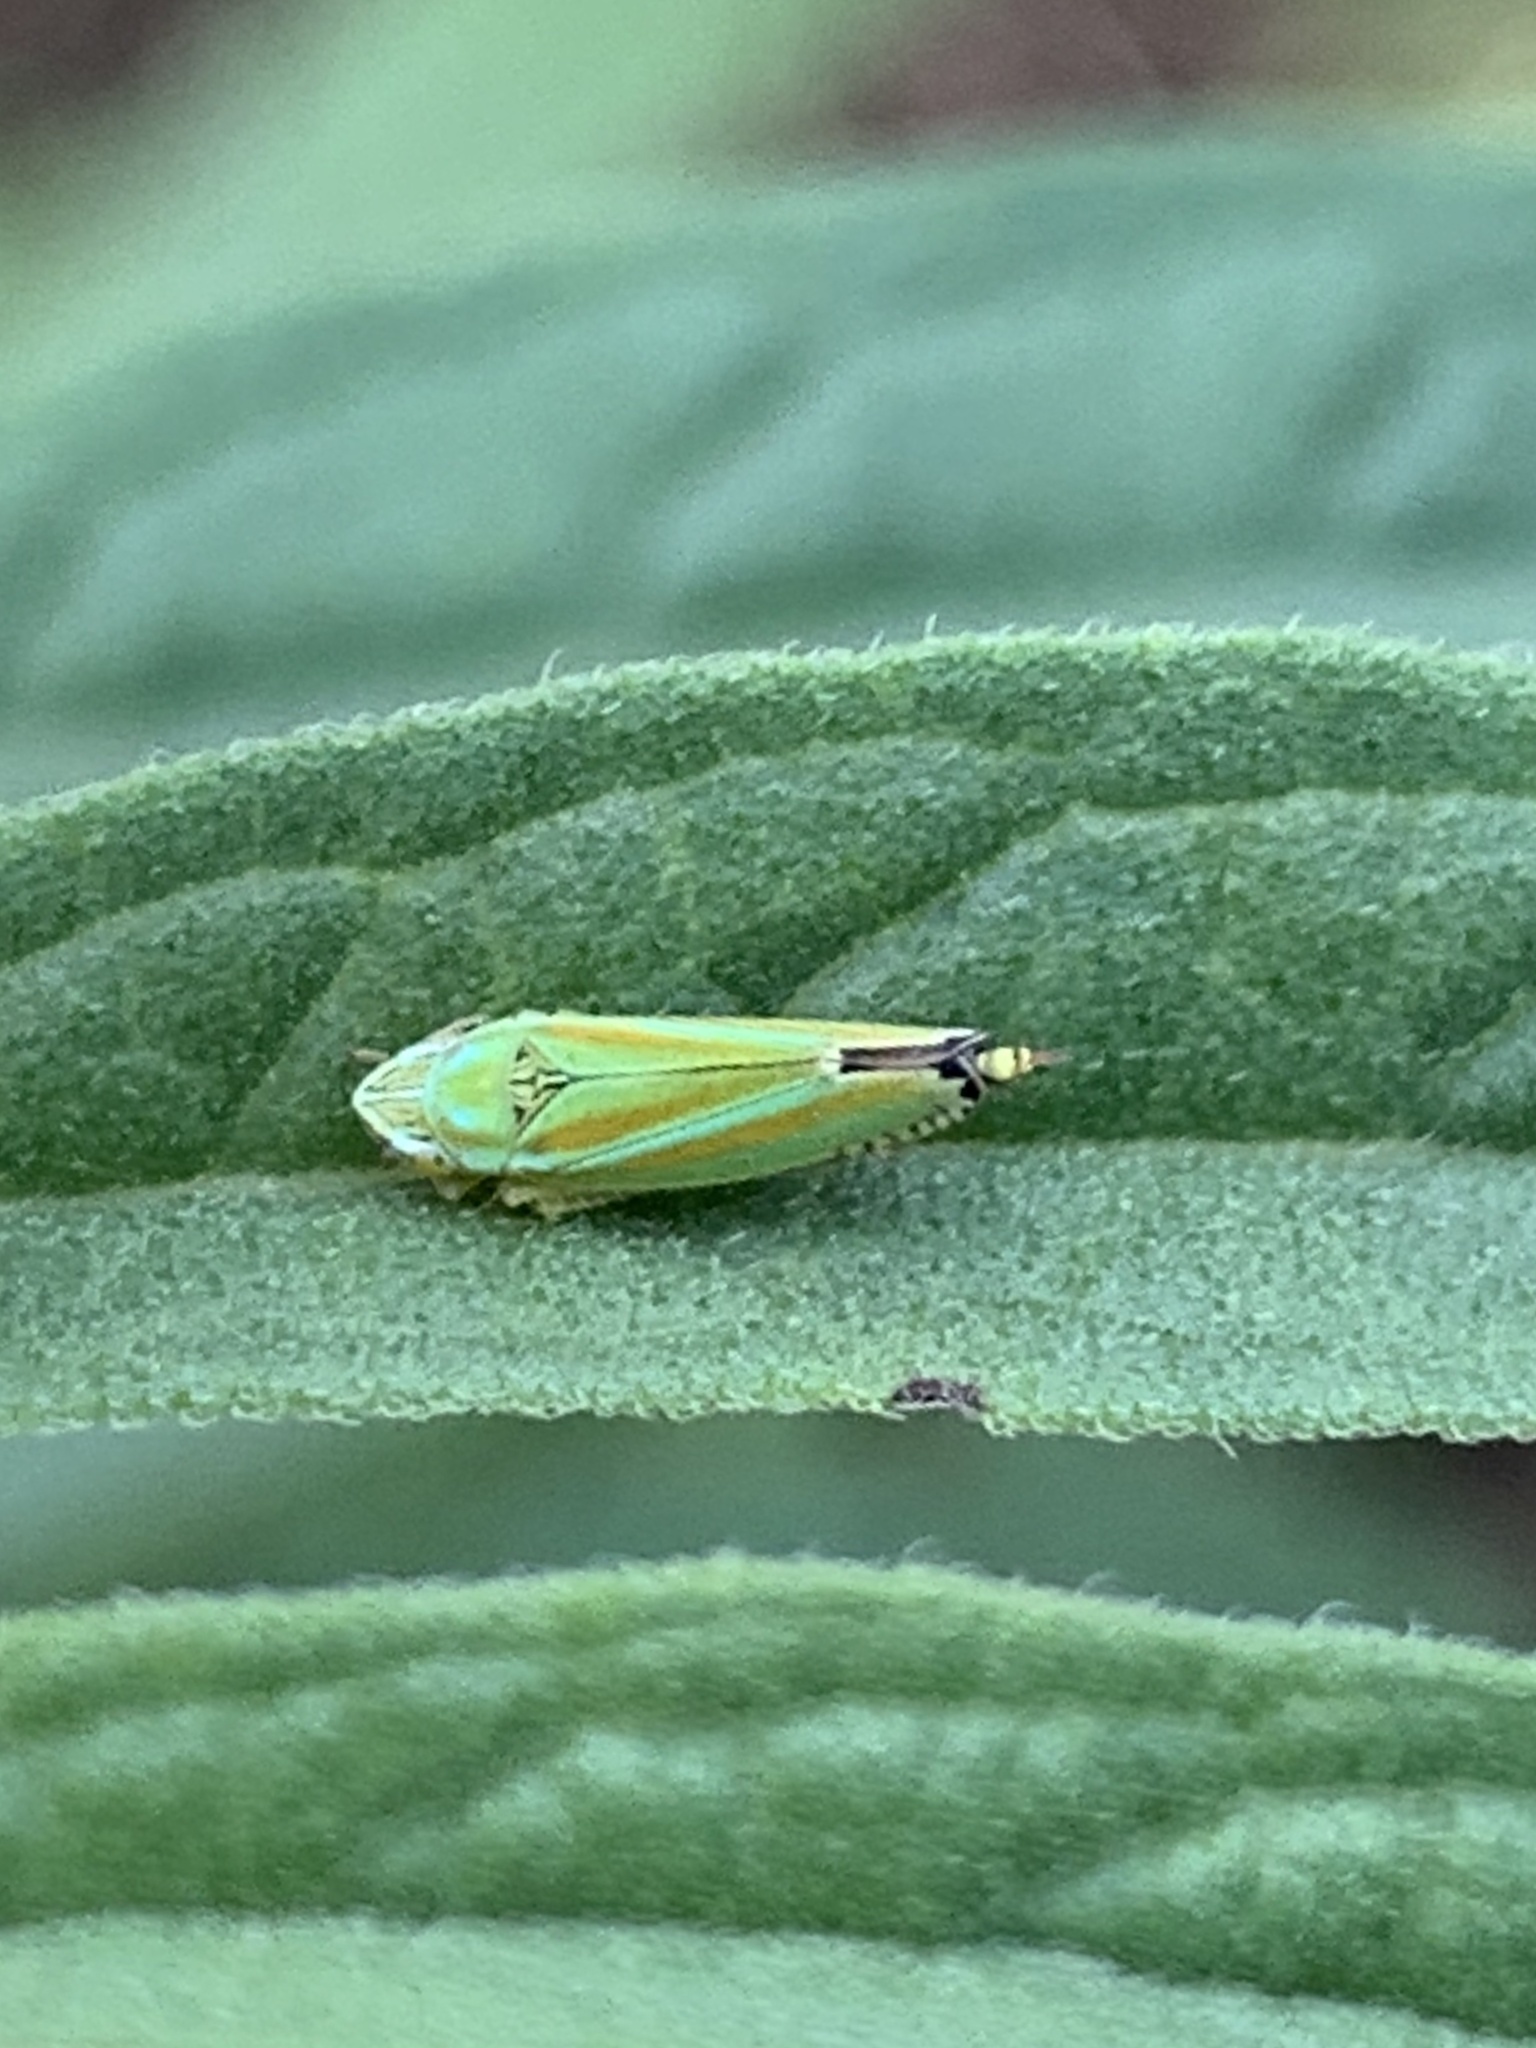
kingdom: Animalia
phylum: Arthropoda
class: Insecta
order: Hemiptera
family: Cicadellidae
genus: Graphocephala
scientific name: Graphocephala versuta
